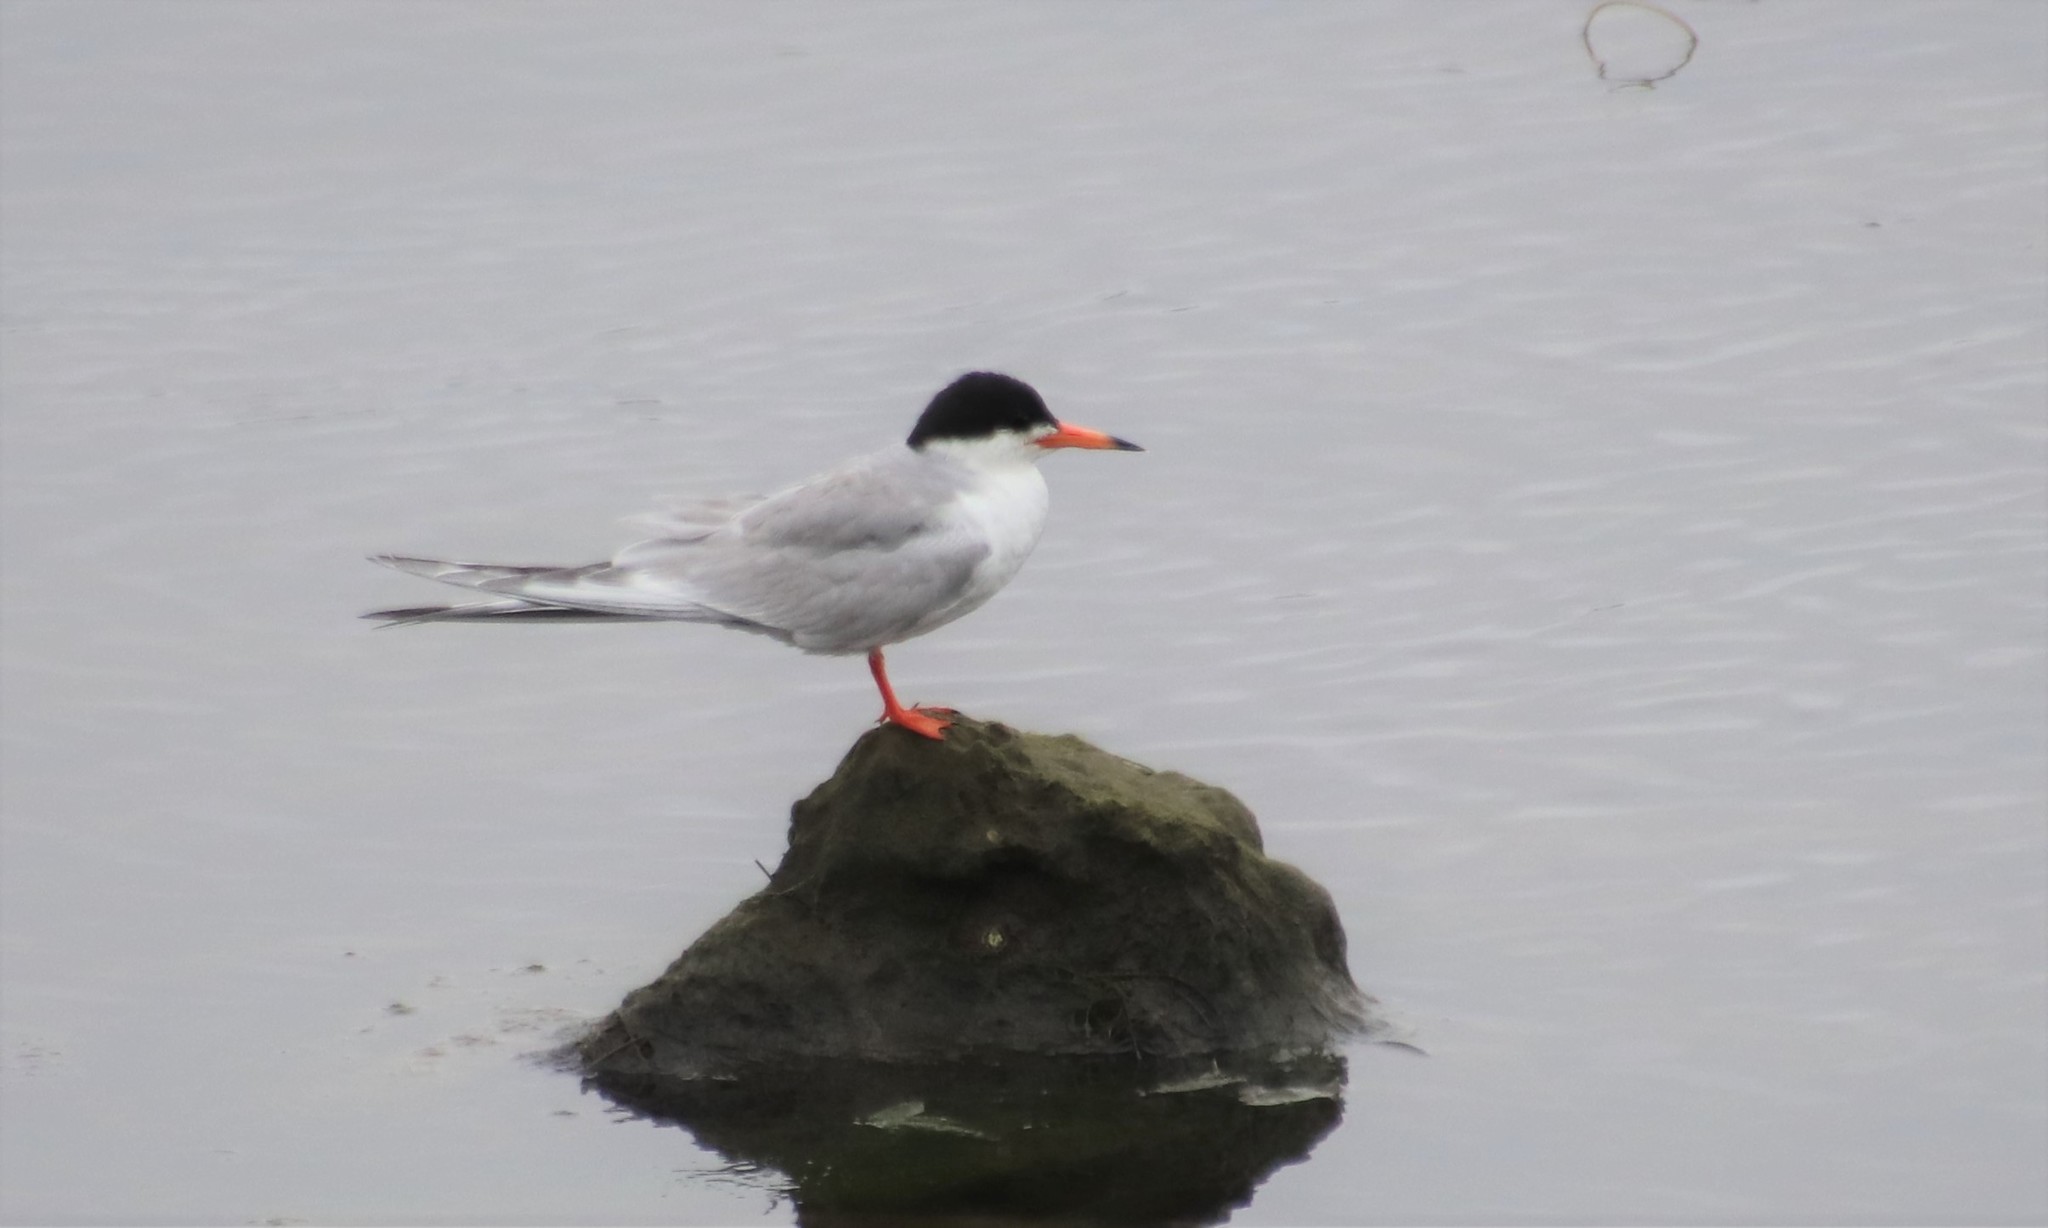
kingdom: Animalia
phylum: Chordata
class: Aves
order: Charadriiformes
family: Laridae
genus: Sterna
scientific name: Sterna forsteri
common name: Forster's tern
